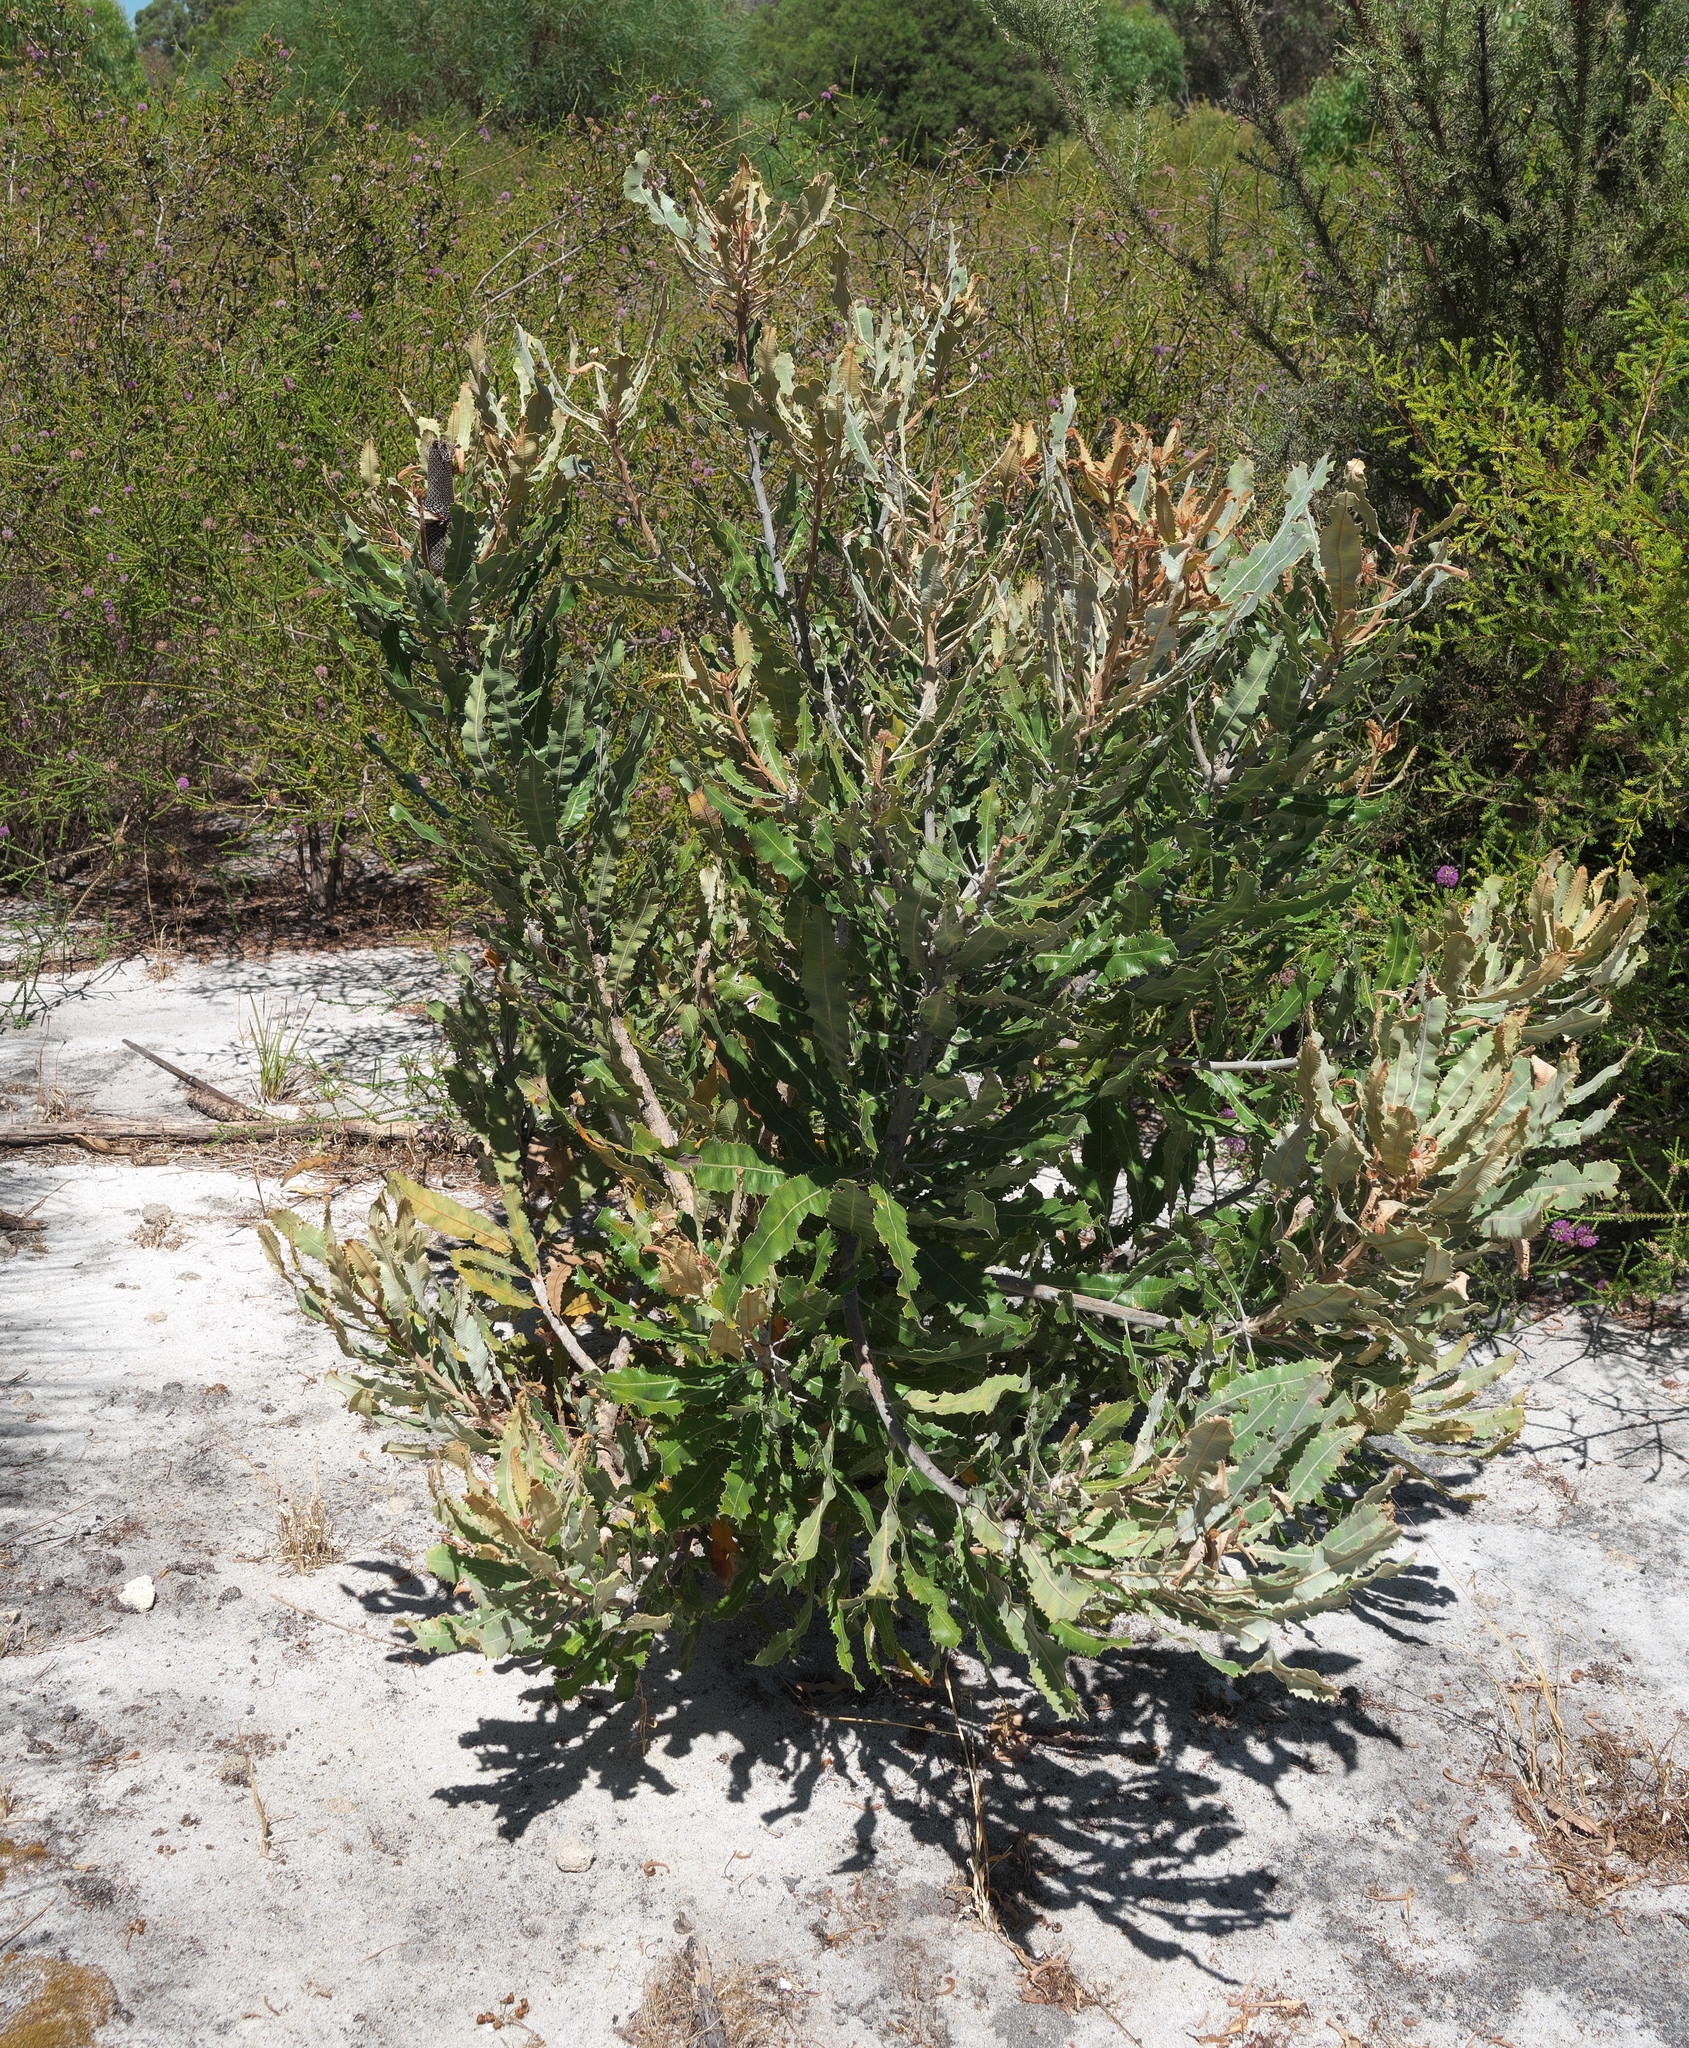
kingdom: Plantae
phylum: Tracheophyta
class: Magnoliopsida
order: Proteales
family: Proteaceae
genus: Banksia
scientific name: Banksia menziesii
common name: Menzie's banksia
